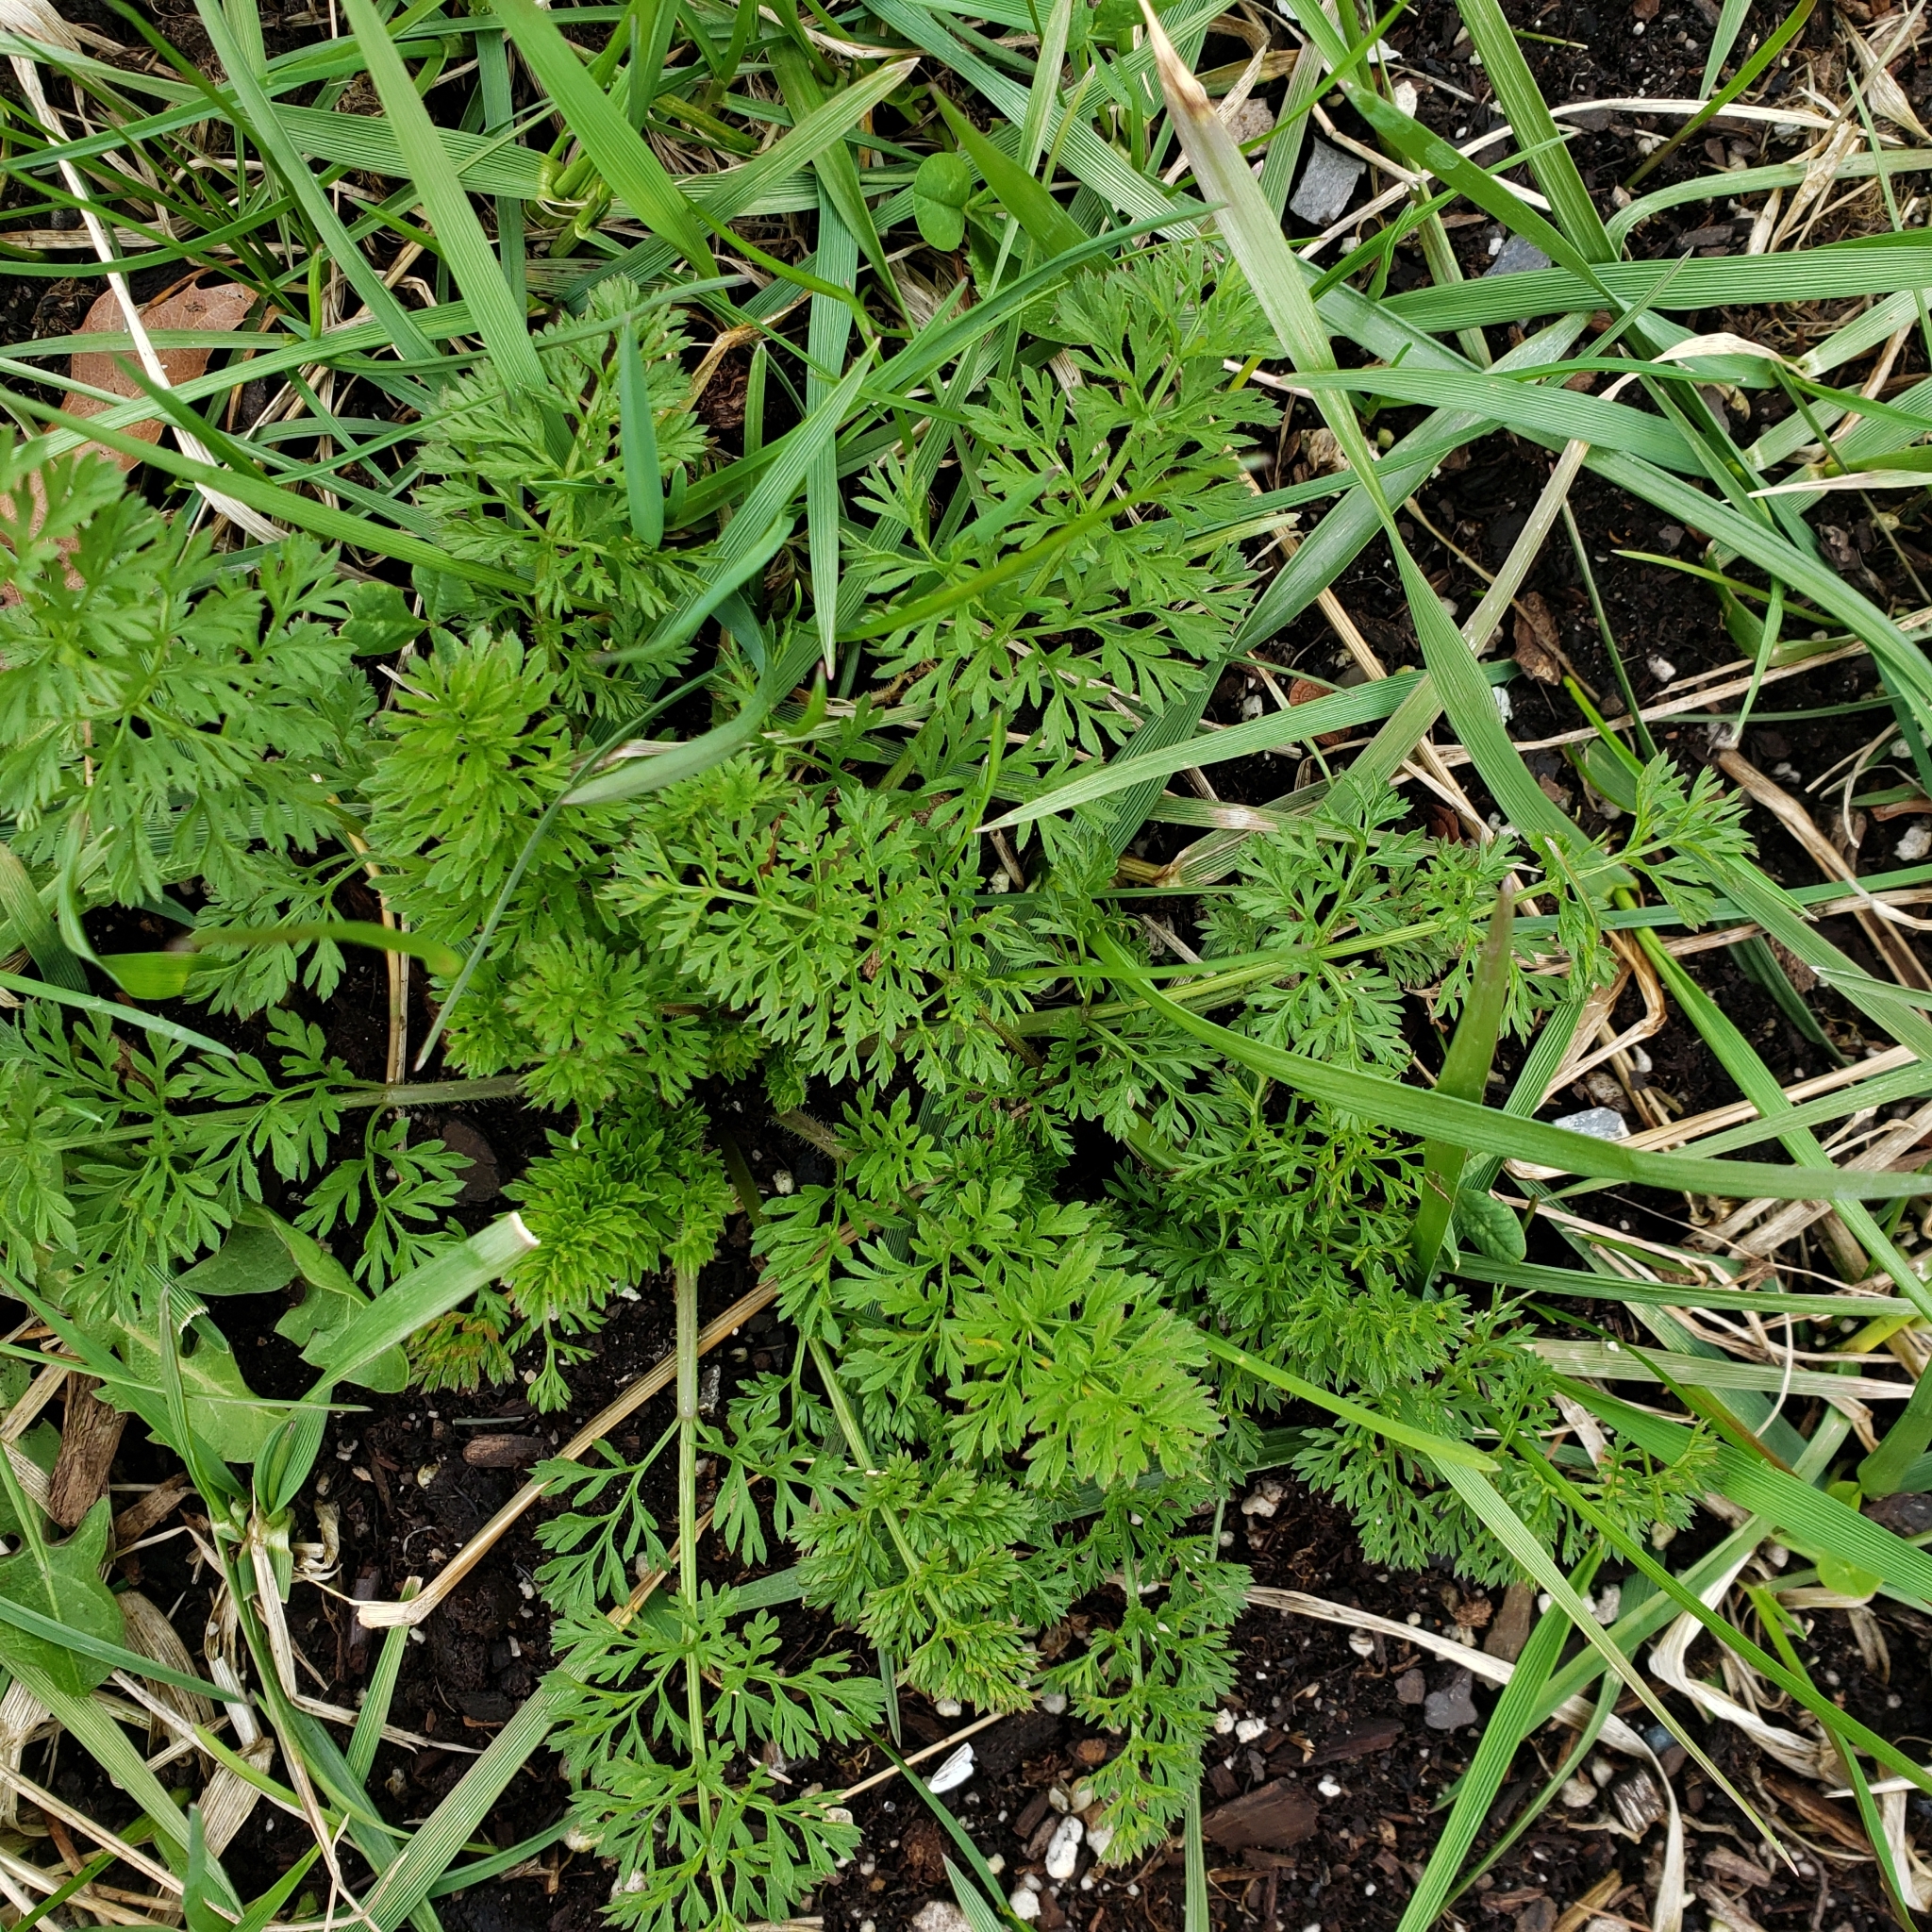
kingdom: Plantae
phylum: Tracheophyta
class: Magnoliopsida
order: Apiales
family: Apiaceae
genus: Daucus
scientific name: Daucus carota
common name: Wild carrot
